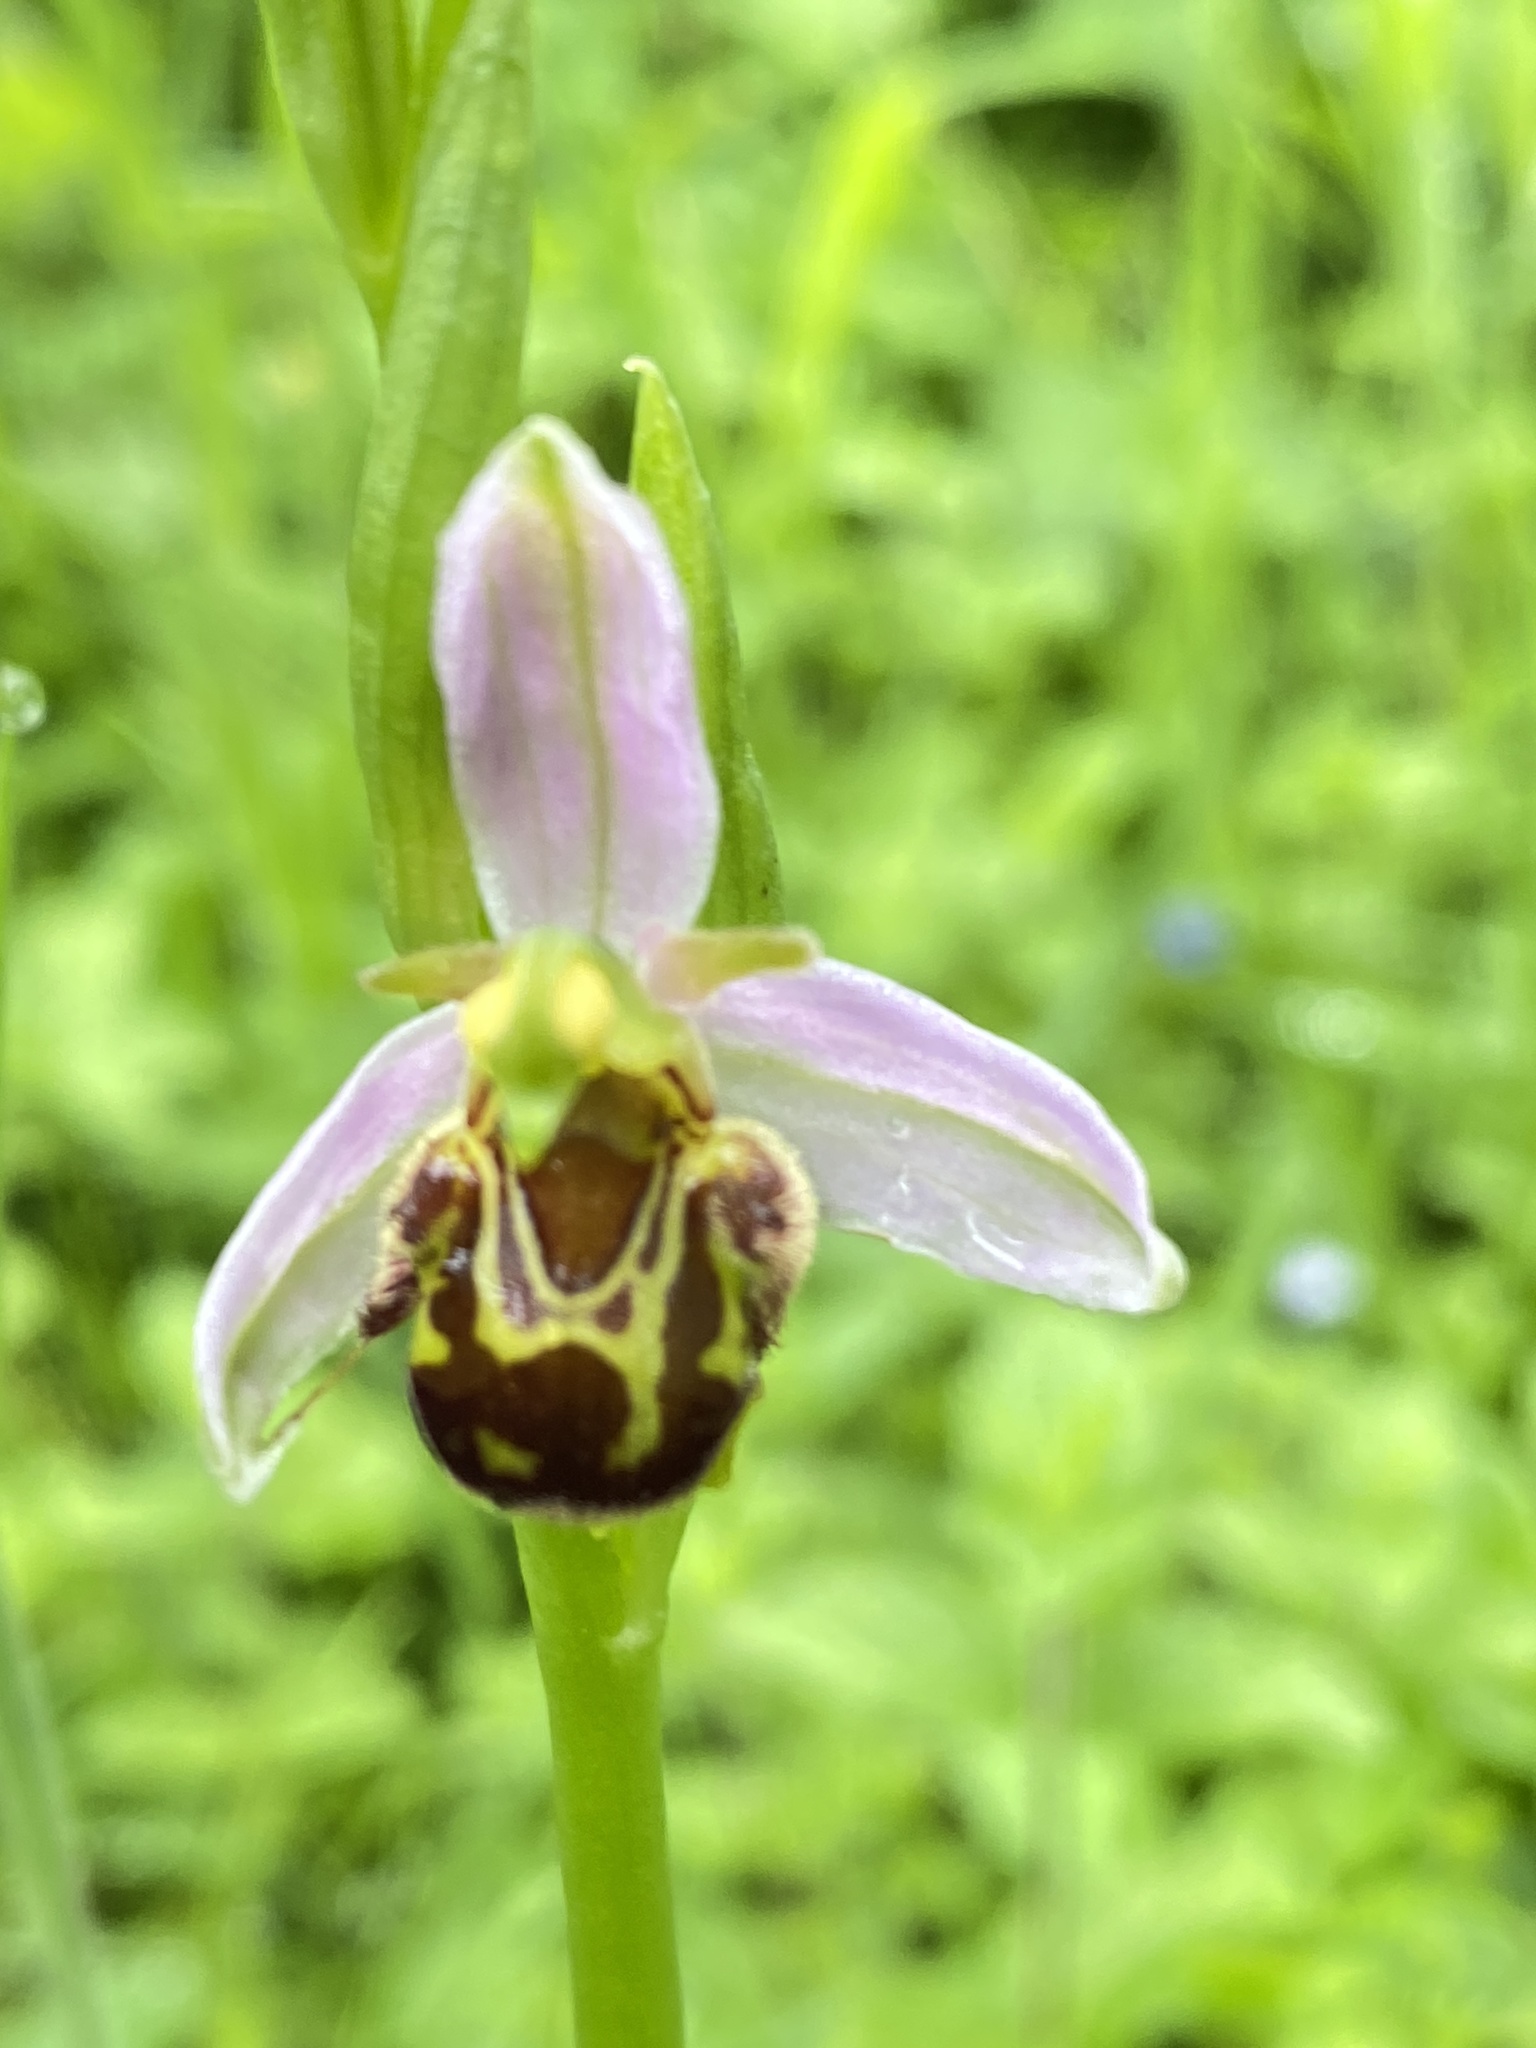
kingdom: Plantae
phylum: Tracheophyta
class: Liliopsida
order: Asparagales
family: Orchidaceae
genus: Ophrys
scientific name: Ophrys apifera
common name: Bee orchid
